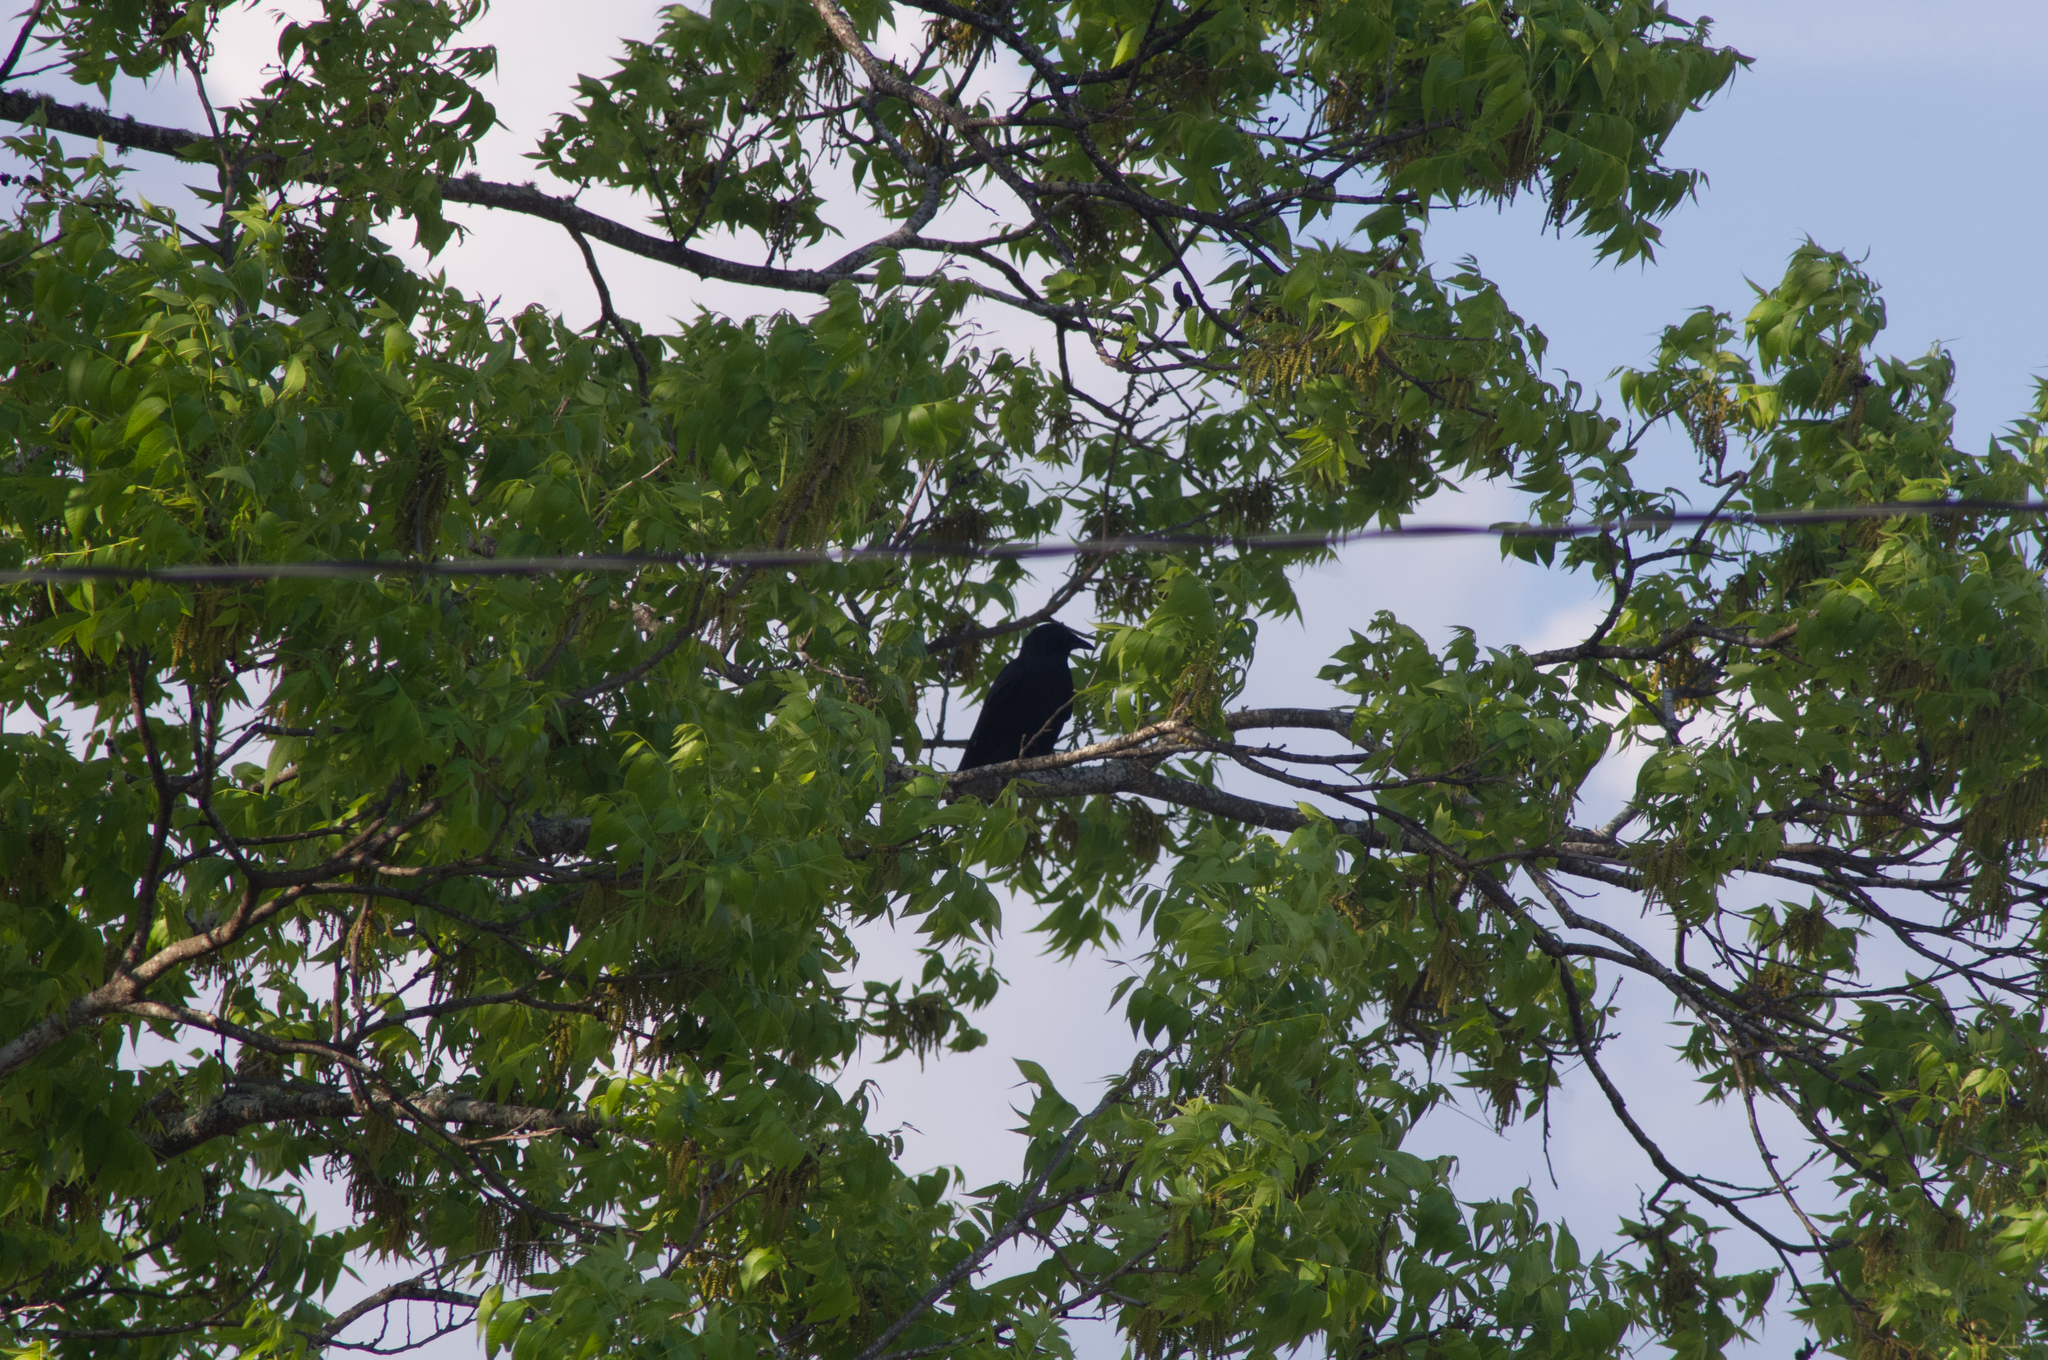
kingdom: Animalia
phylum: Chordata
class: Aves
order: Passeriformes
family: Corvidae
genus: Corvus
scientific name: Corvus ossifragus
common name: Fish crow
